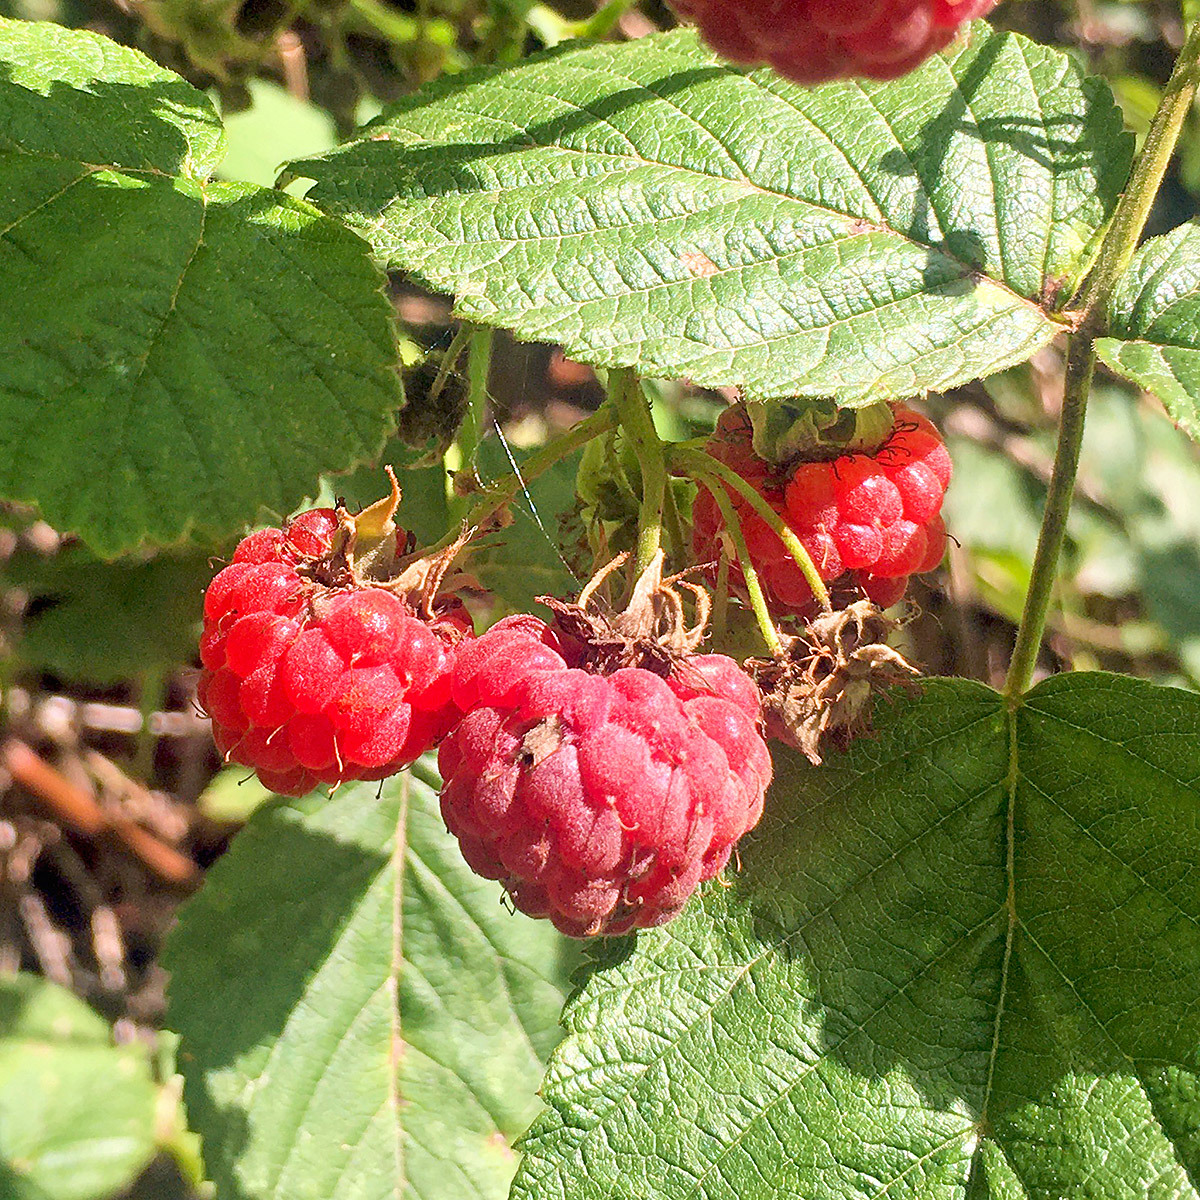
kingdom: Plantae
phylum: Tracheophyta
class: Magnoliopsida
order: Rosales
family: Rosaceae
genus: Rubus
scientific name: Rubus idaeus
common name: Raspberry
